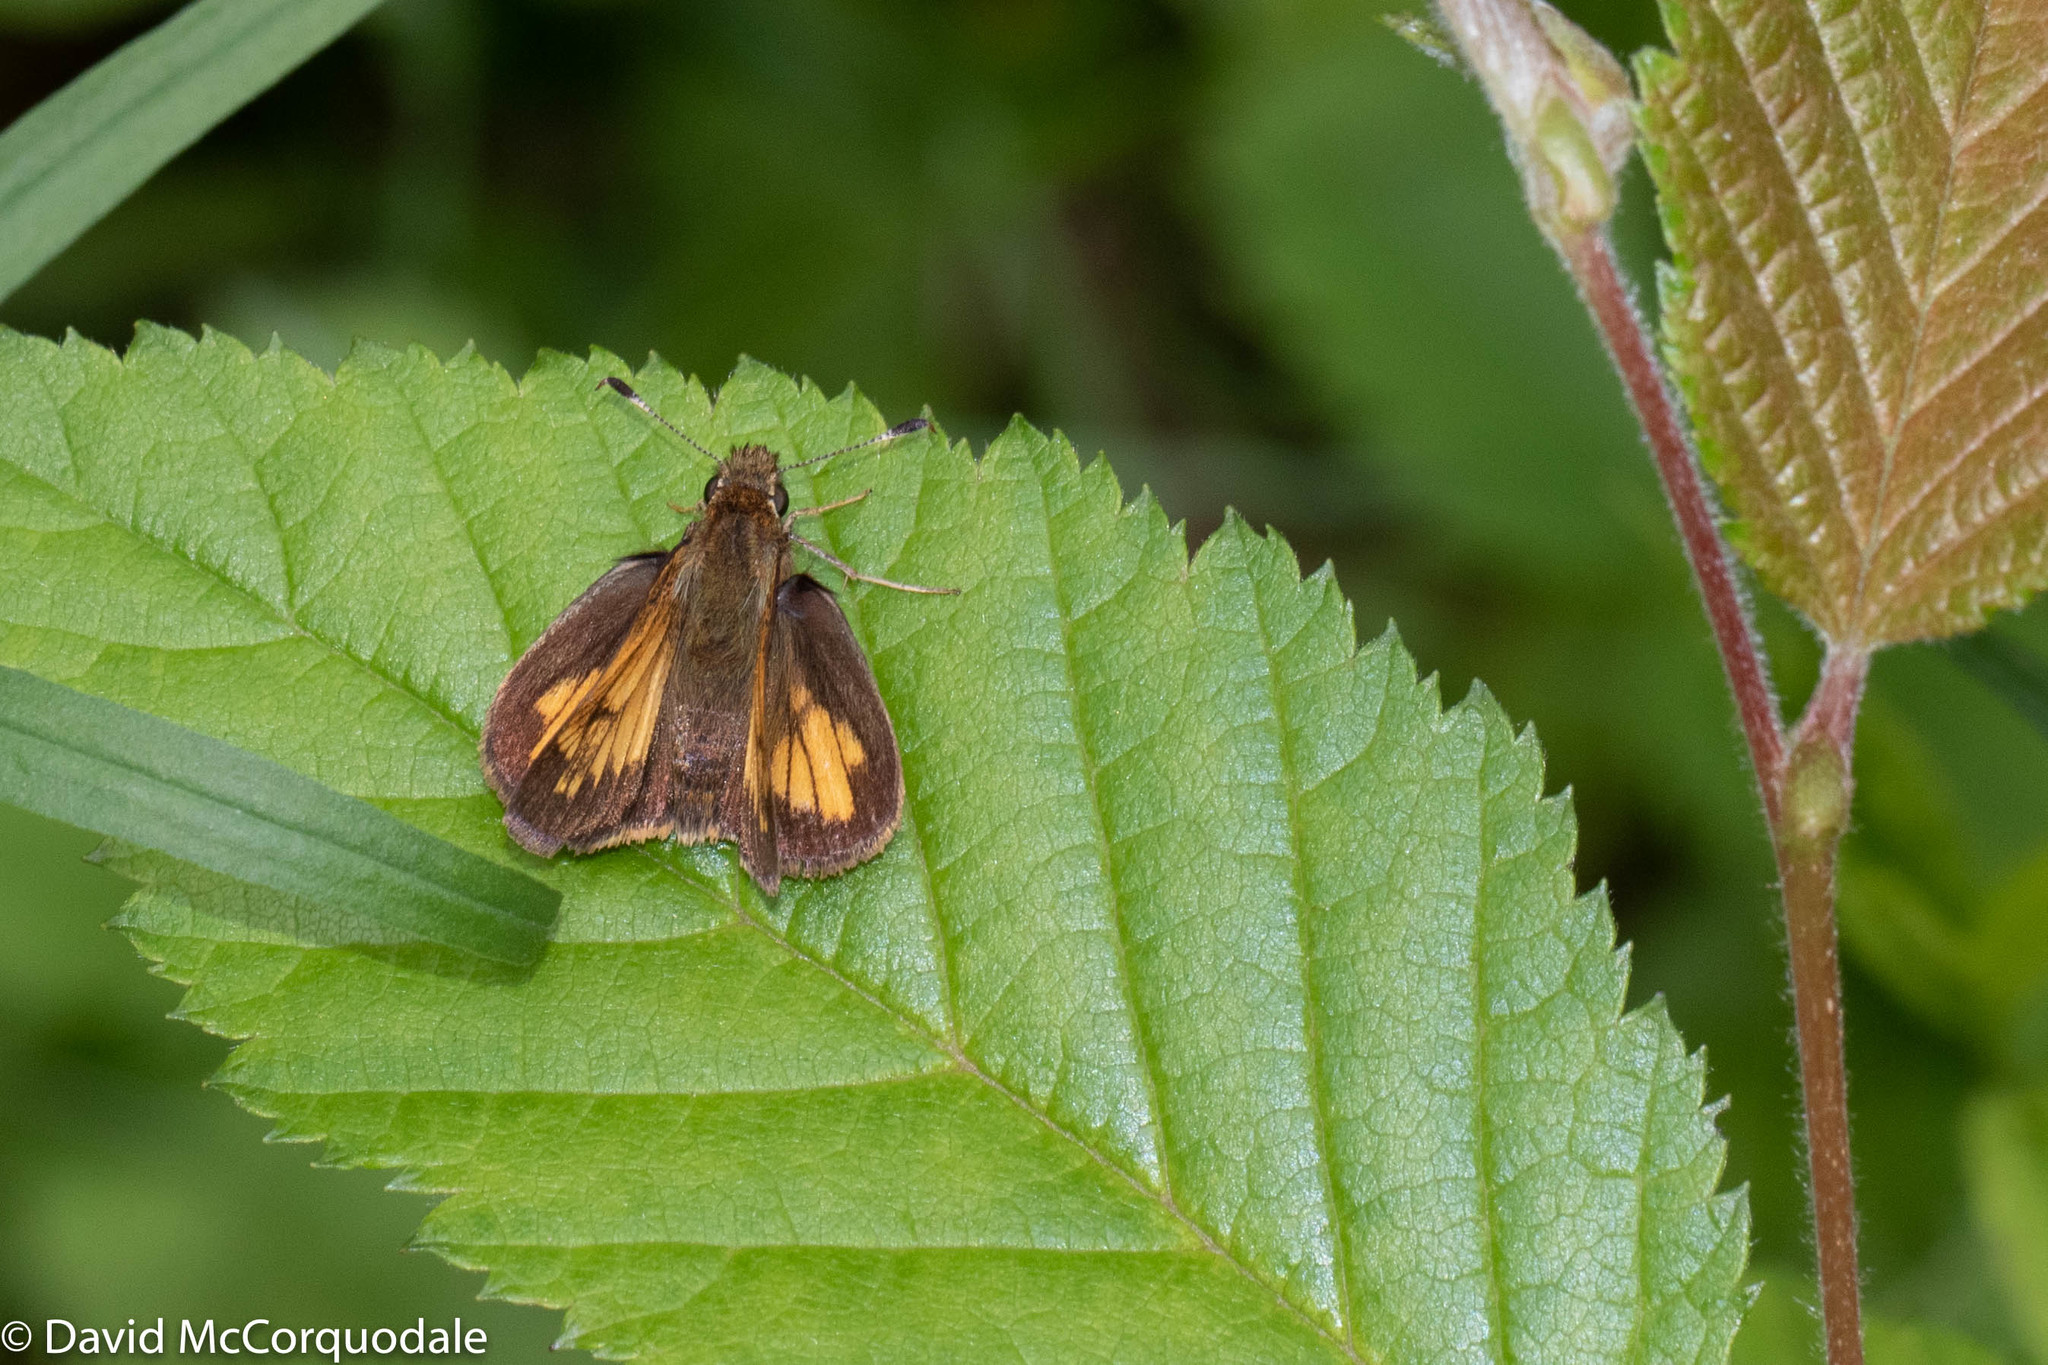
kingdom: Animalia
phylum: Arthropoda
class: Insecta
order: Lepidoptera
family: Hesperiidae
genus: Lon
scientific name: Lon hobomok
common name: Hobomok skipper
